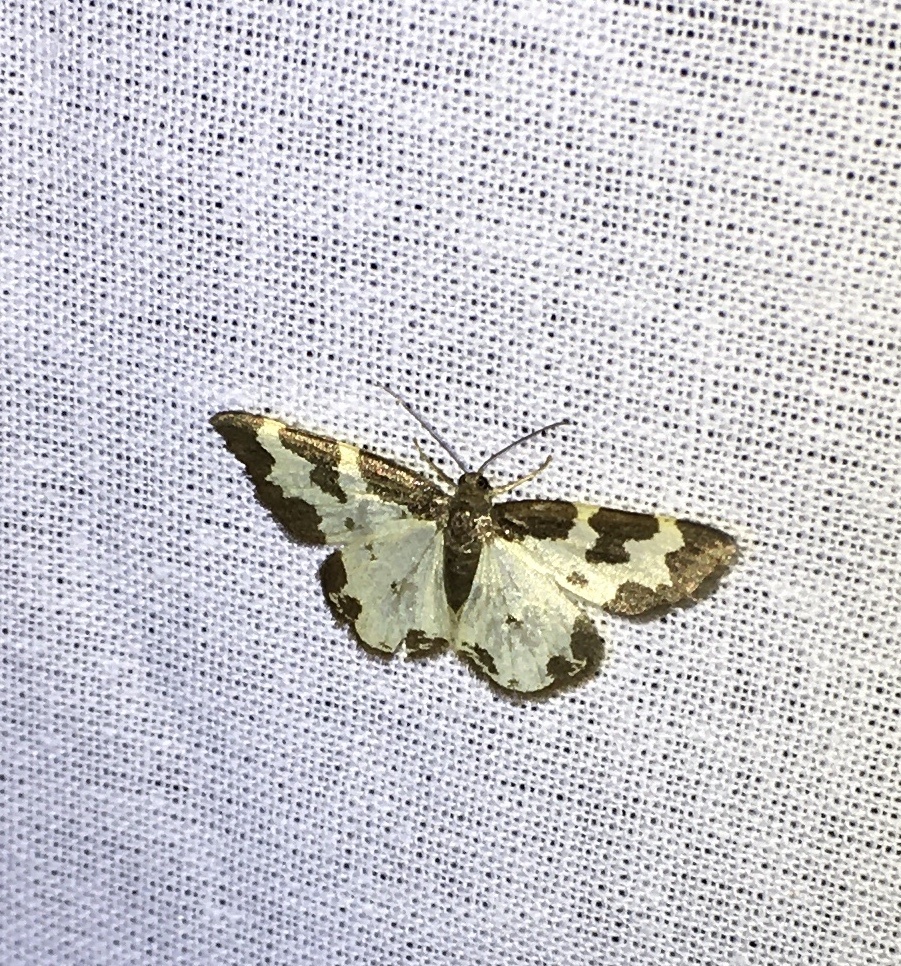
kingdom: Animalia
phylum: Arthropoda
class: Insecta
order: Lepidoptera
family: Geometridae
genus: Lomaspilis
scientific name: Lomaspilis marginata
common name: Clouded border
